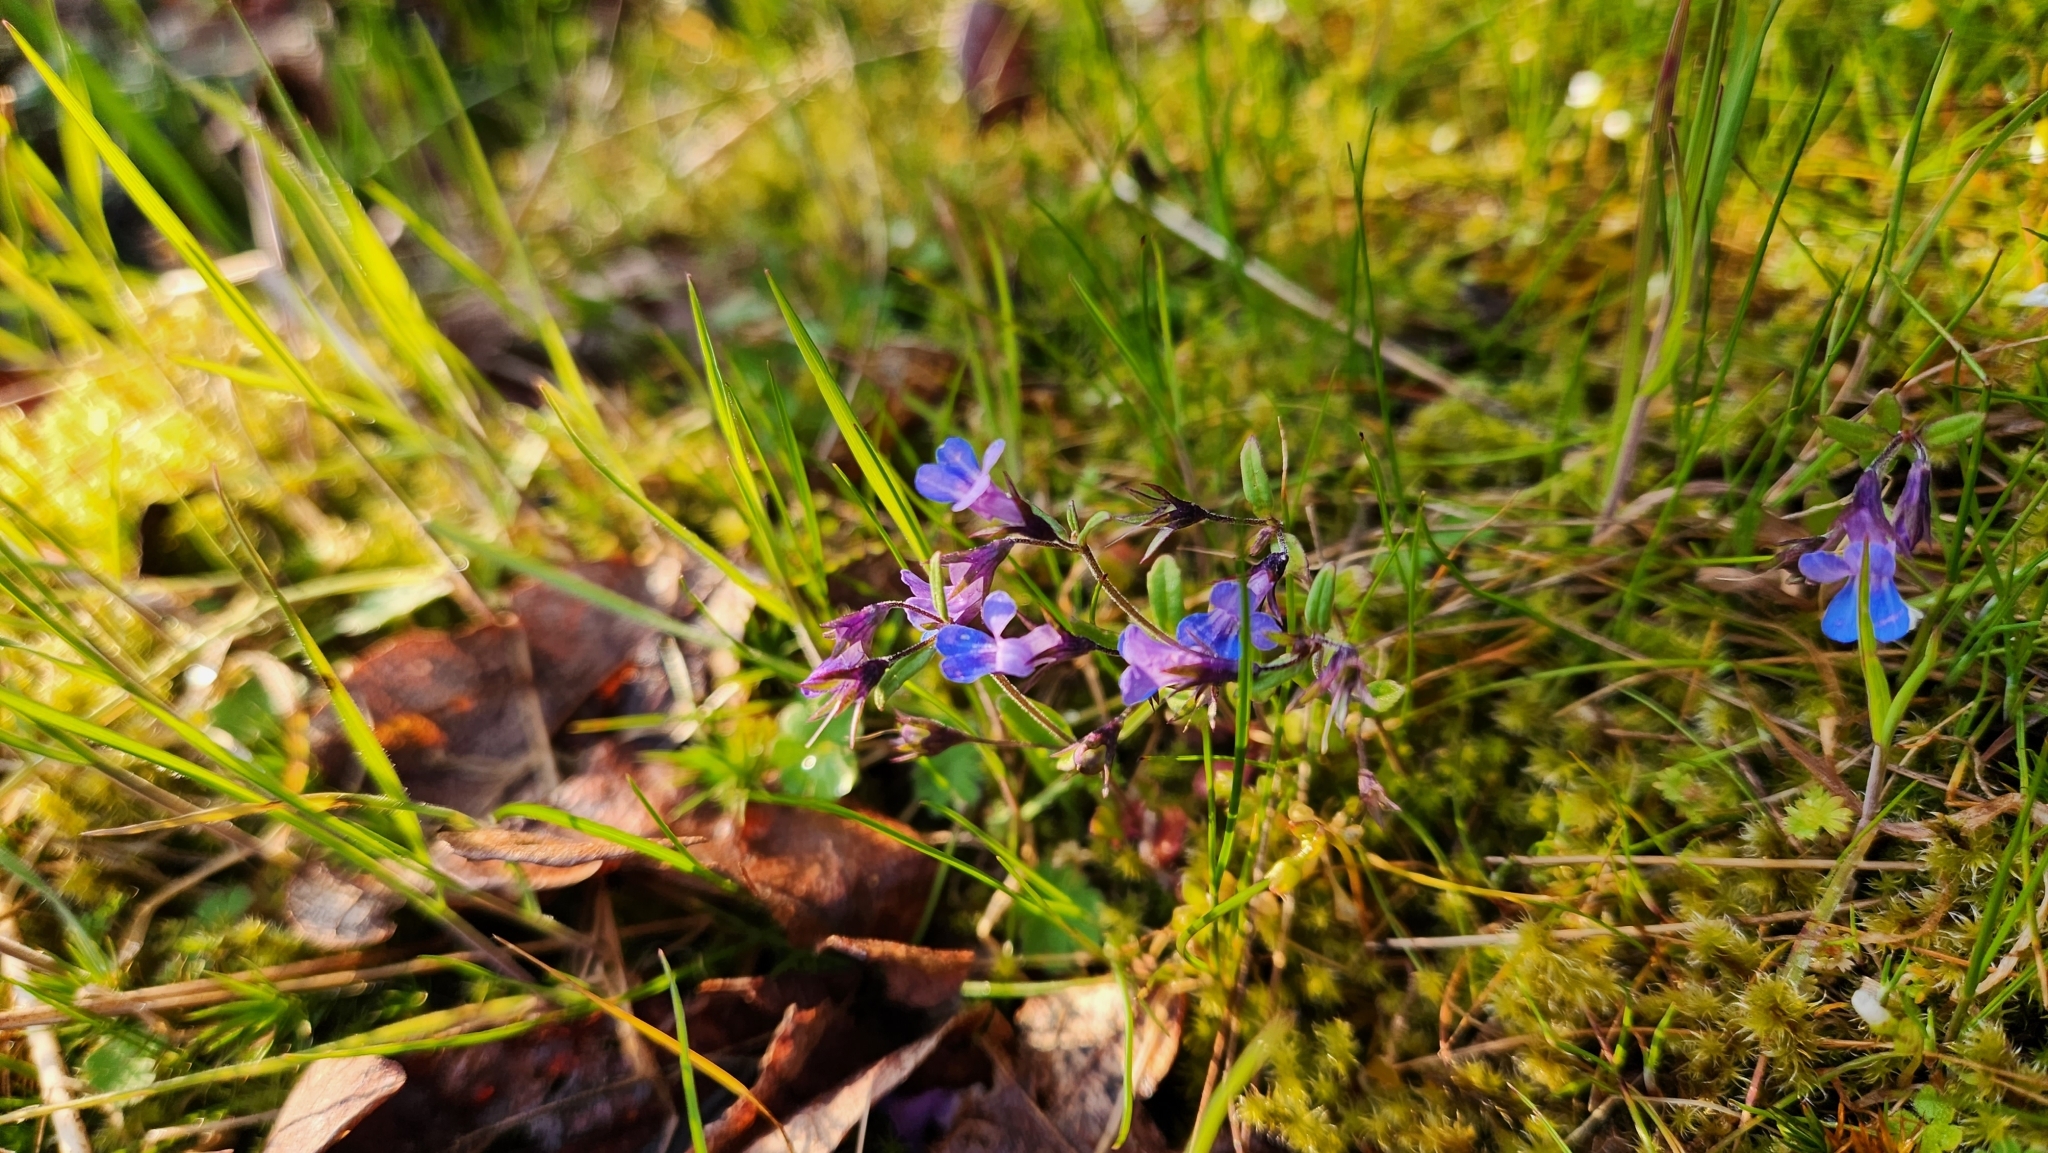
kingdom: Plantae
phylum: Tracheophyta
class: Magnoliopsida
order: Lamiales
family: Plantaginaceae
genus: Collinsia
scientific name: Collinsia parviflora
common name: Blue-lips
